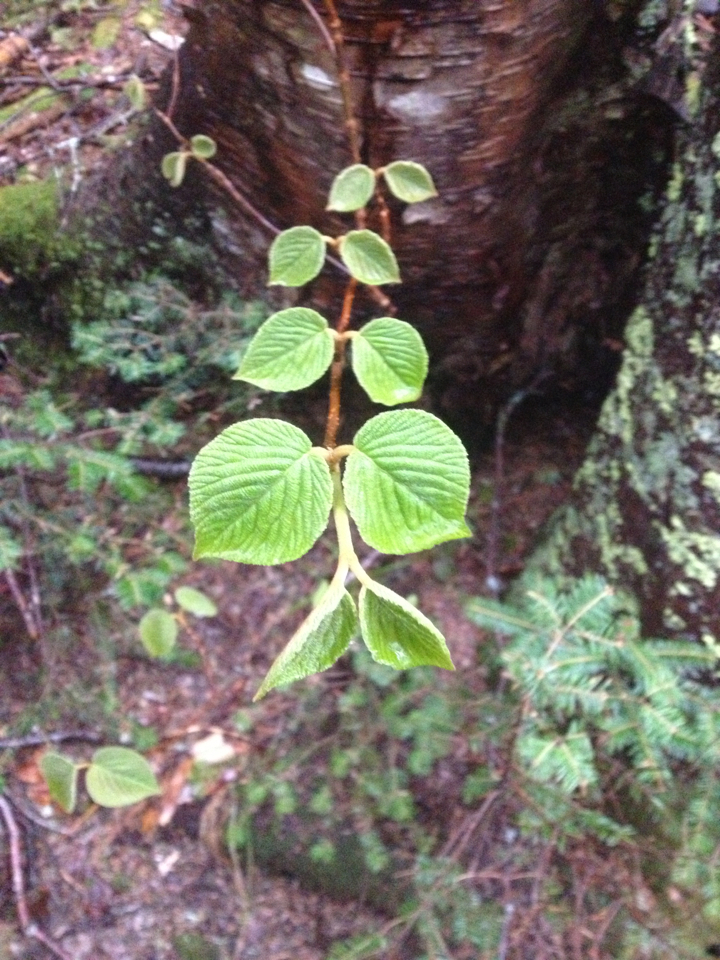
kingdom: Plantae
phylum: Tracheophyta
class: Magnoliopsida
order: Dipsacales
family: Viburnaceae
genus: Viburnum
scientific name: Viburnum lantanoides
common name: Hobblebush
